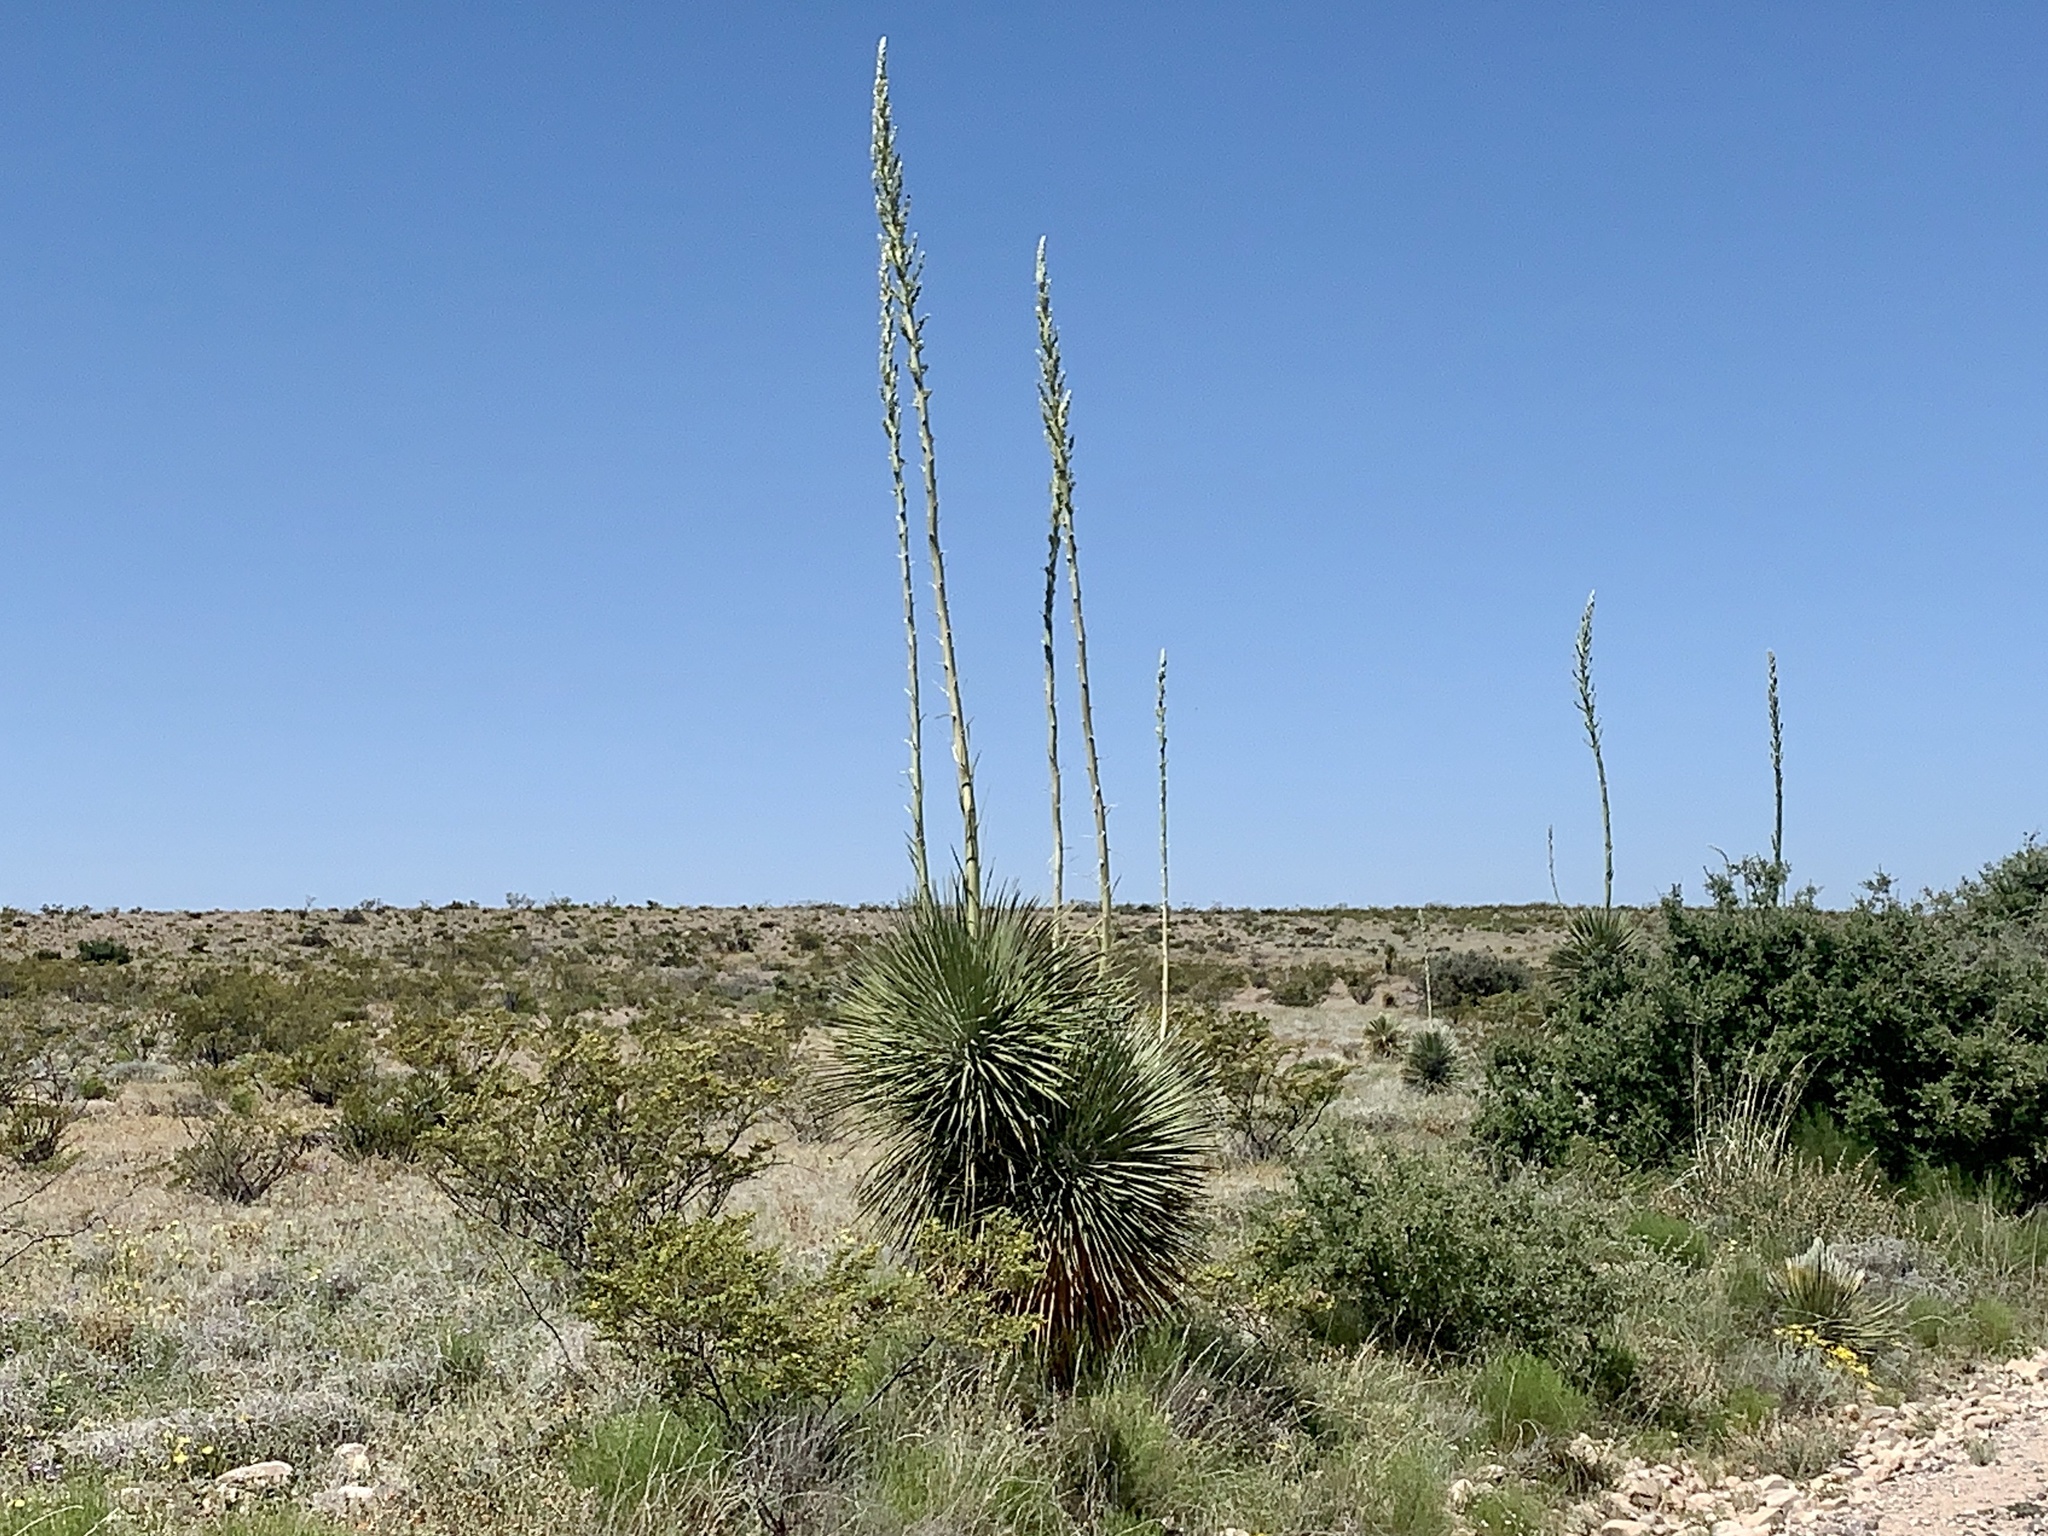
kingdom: Plantae
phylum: Tracheophyta
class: Liliopsida
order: Asparagales
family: Asparagaceae
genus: Yucca
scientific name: Yucca elata
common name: Palmella
